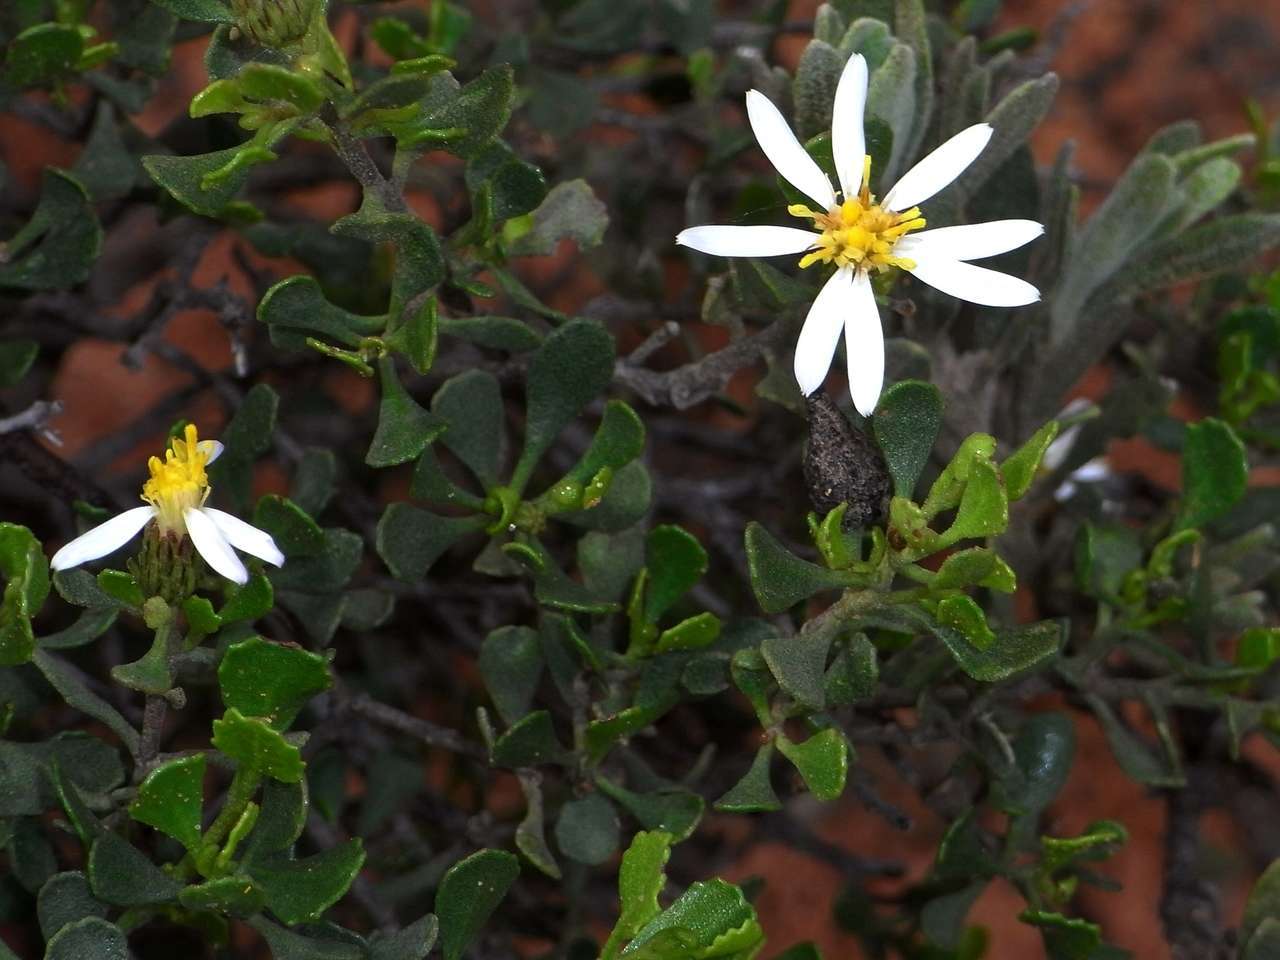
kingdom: Plantae
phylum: Tracheophyta
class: Magnoliopsida
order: Asterales
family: Asteraceae
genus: Walsholaria
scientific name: Walsholaria muelleri
